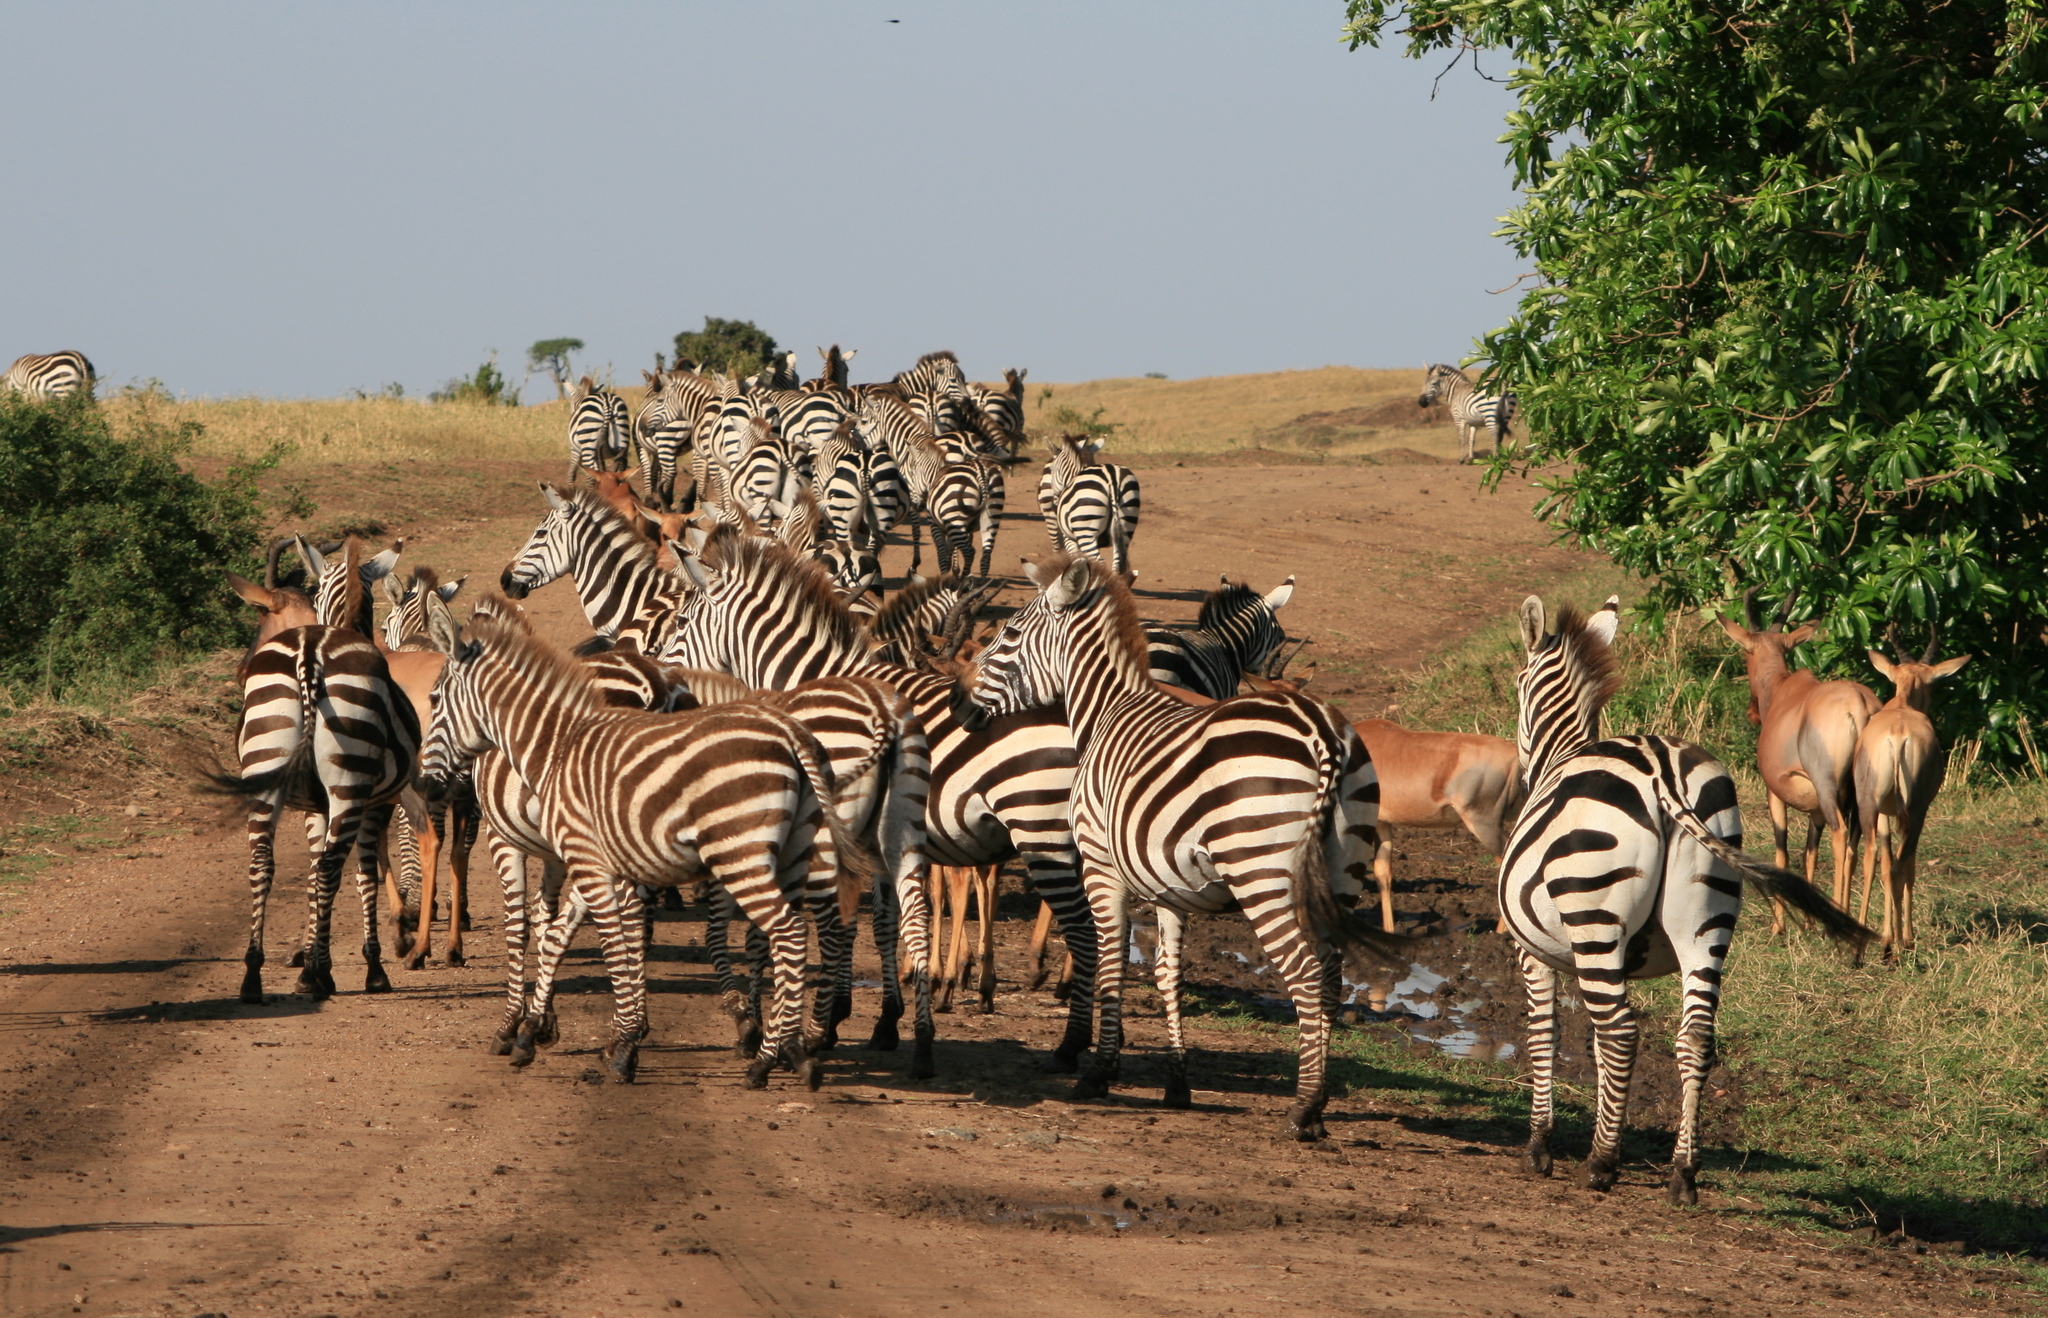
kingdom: Animalia
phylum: Chordata
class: Mammalia
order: Perissodactyla
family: Equidae
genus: Equus
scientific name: Equus quagga
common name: Plains zebra
